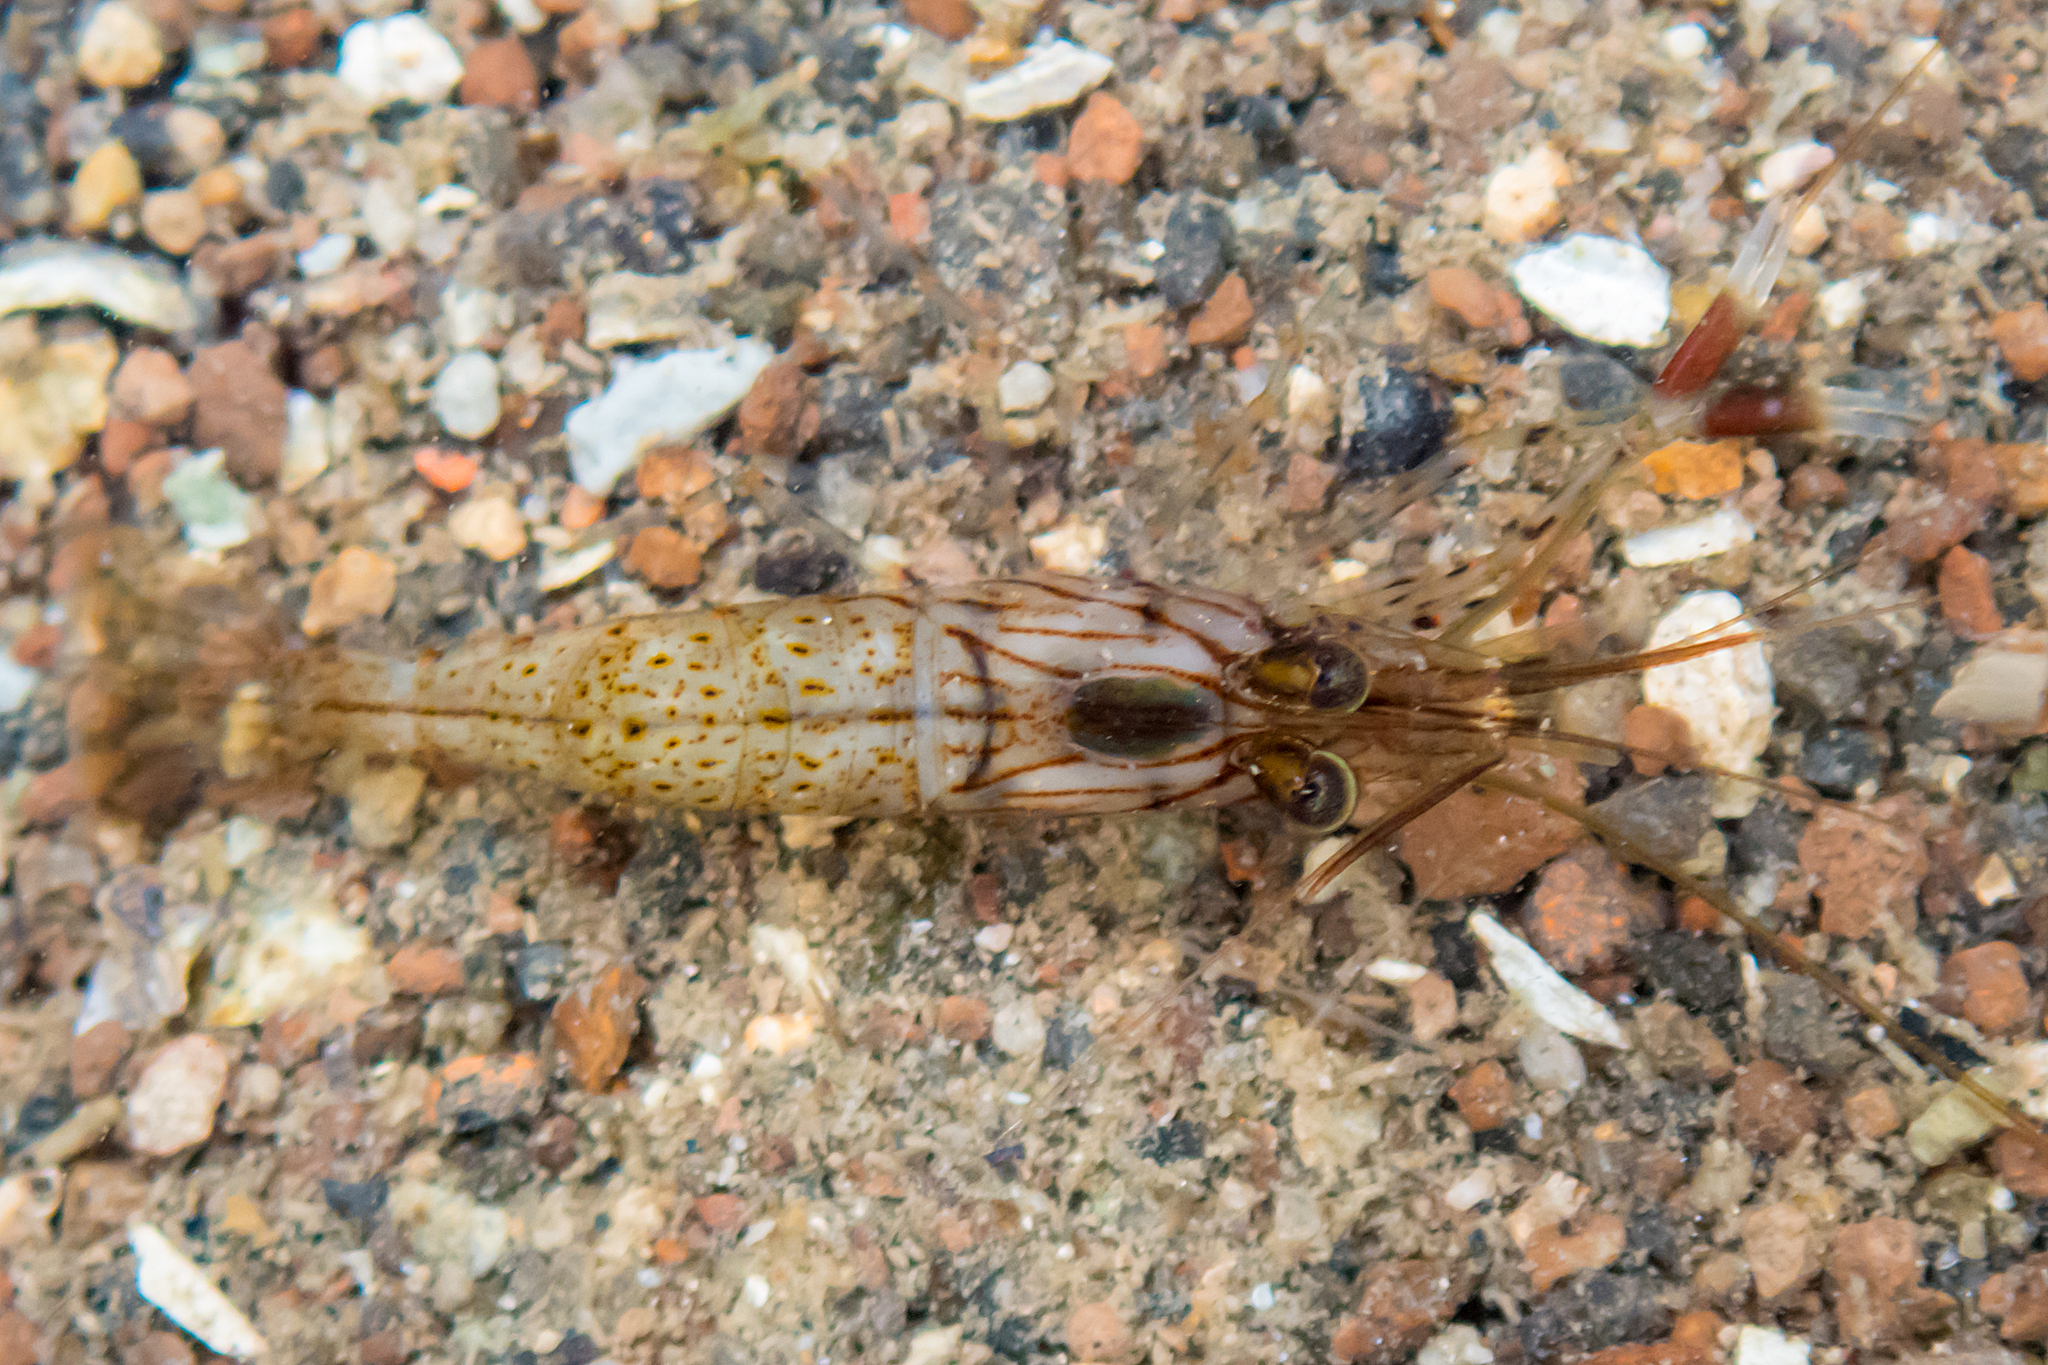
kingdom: Animalia
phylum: Arthropoda
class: Malacostraca
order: Decapoda
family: Palaemonidae
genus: Palaemon
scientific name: Palaemon serenus
